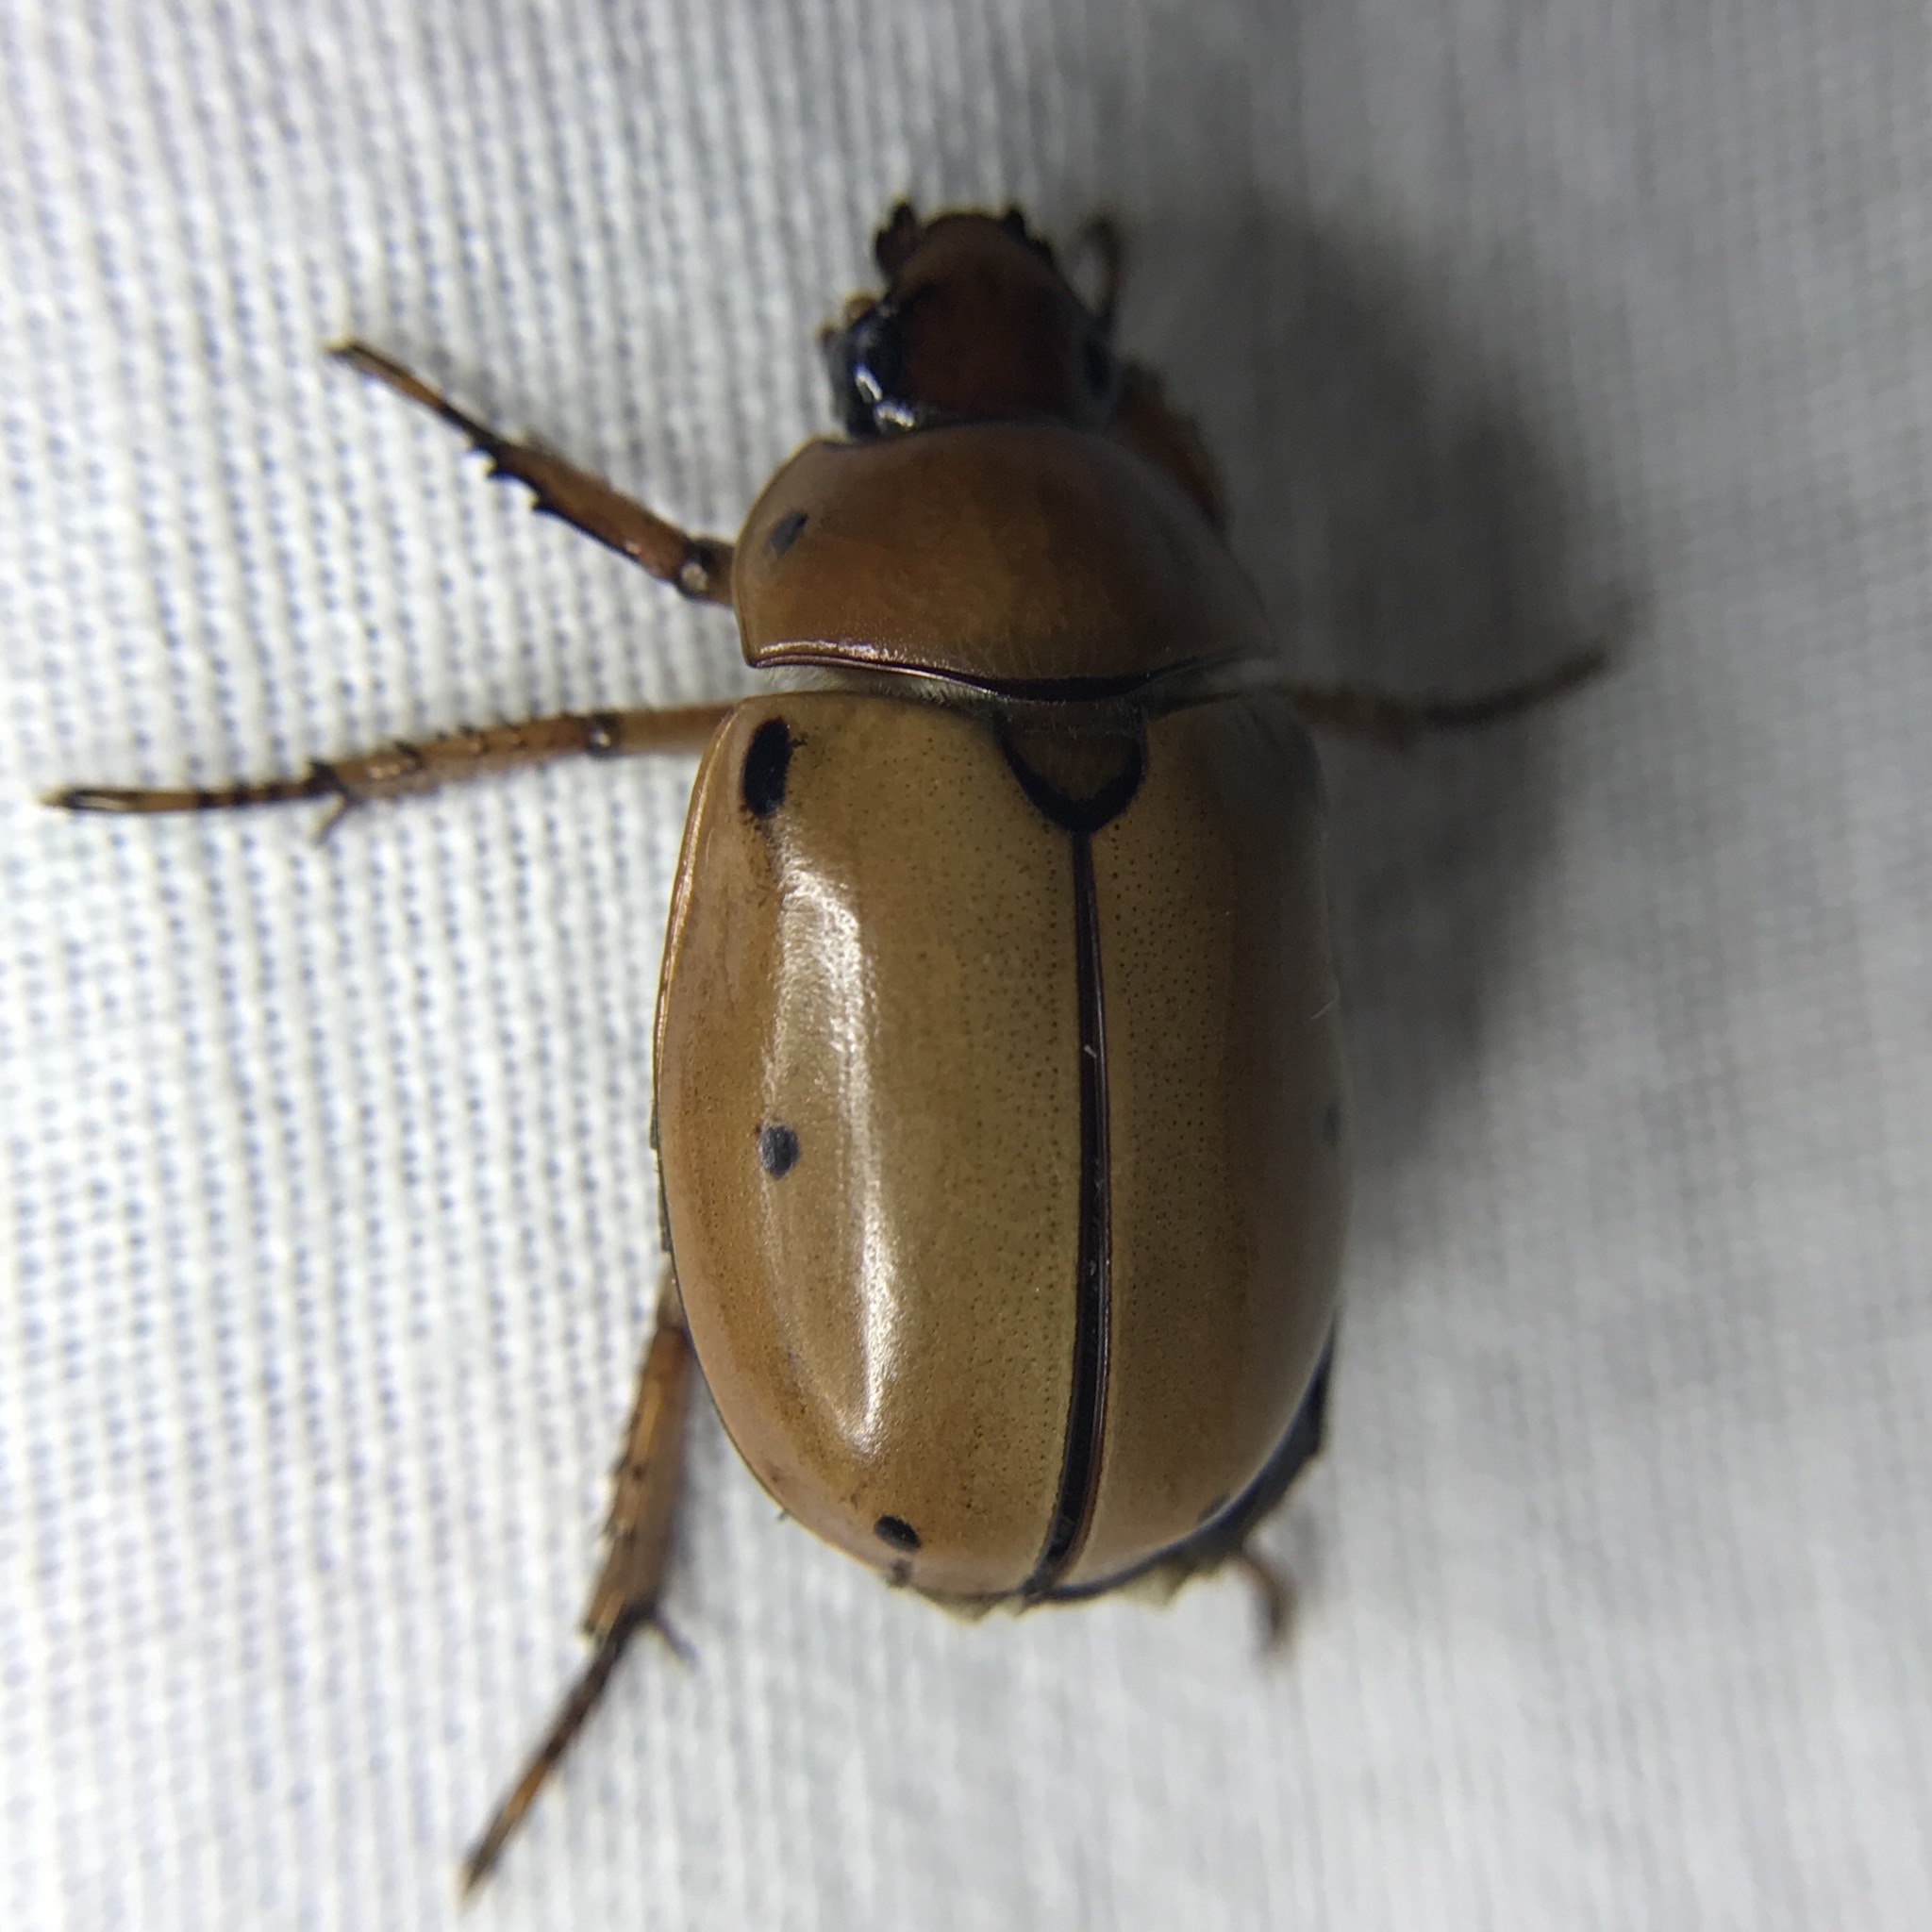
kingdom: Animalia
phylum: Arthropoda
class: Insecta
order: Coleoptera
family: Scarabaeidae
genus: Pelidnota
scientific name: Pelidnota punctata
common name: Grapevine beetle
